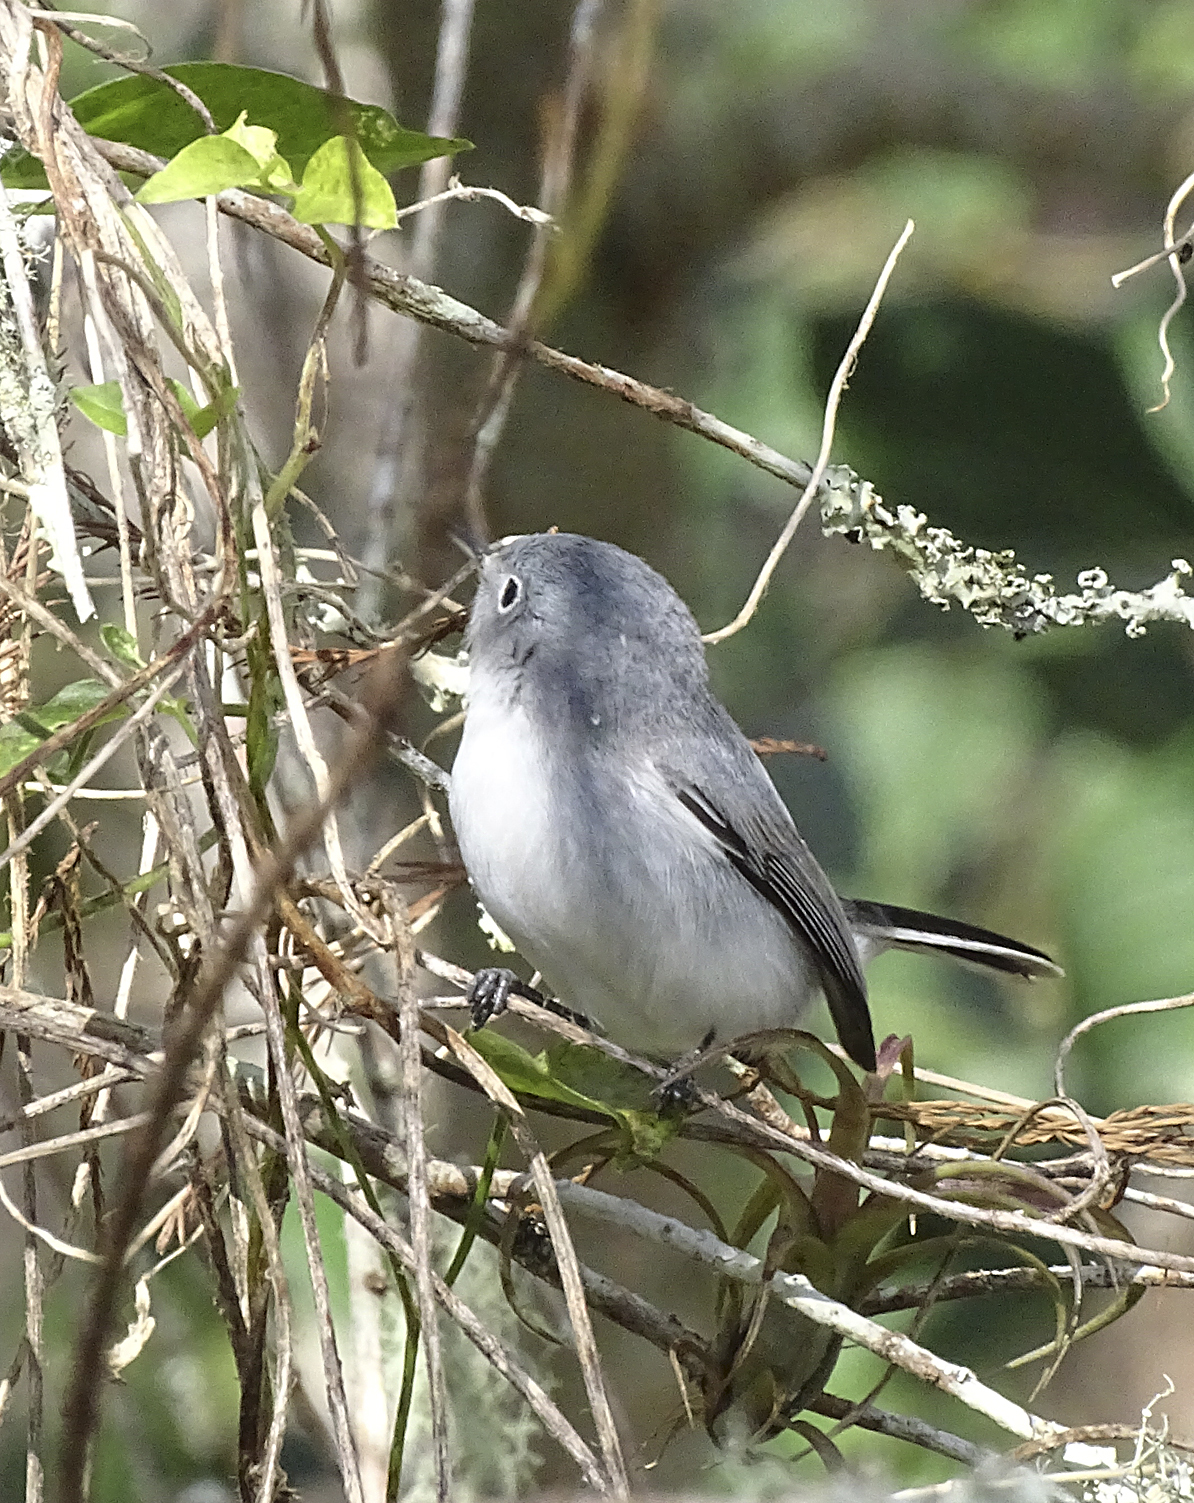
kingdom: Animalia
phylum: Chordata
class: Aves
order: Passeriformes
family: Polioptilidae
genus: Polioptila
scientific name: Polioptila caerulea
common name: Blue-gray gnatcatcher
